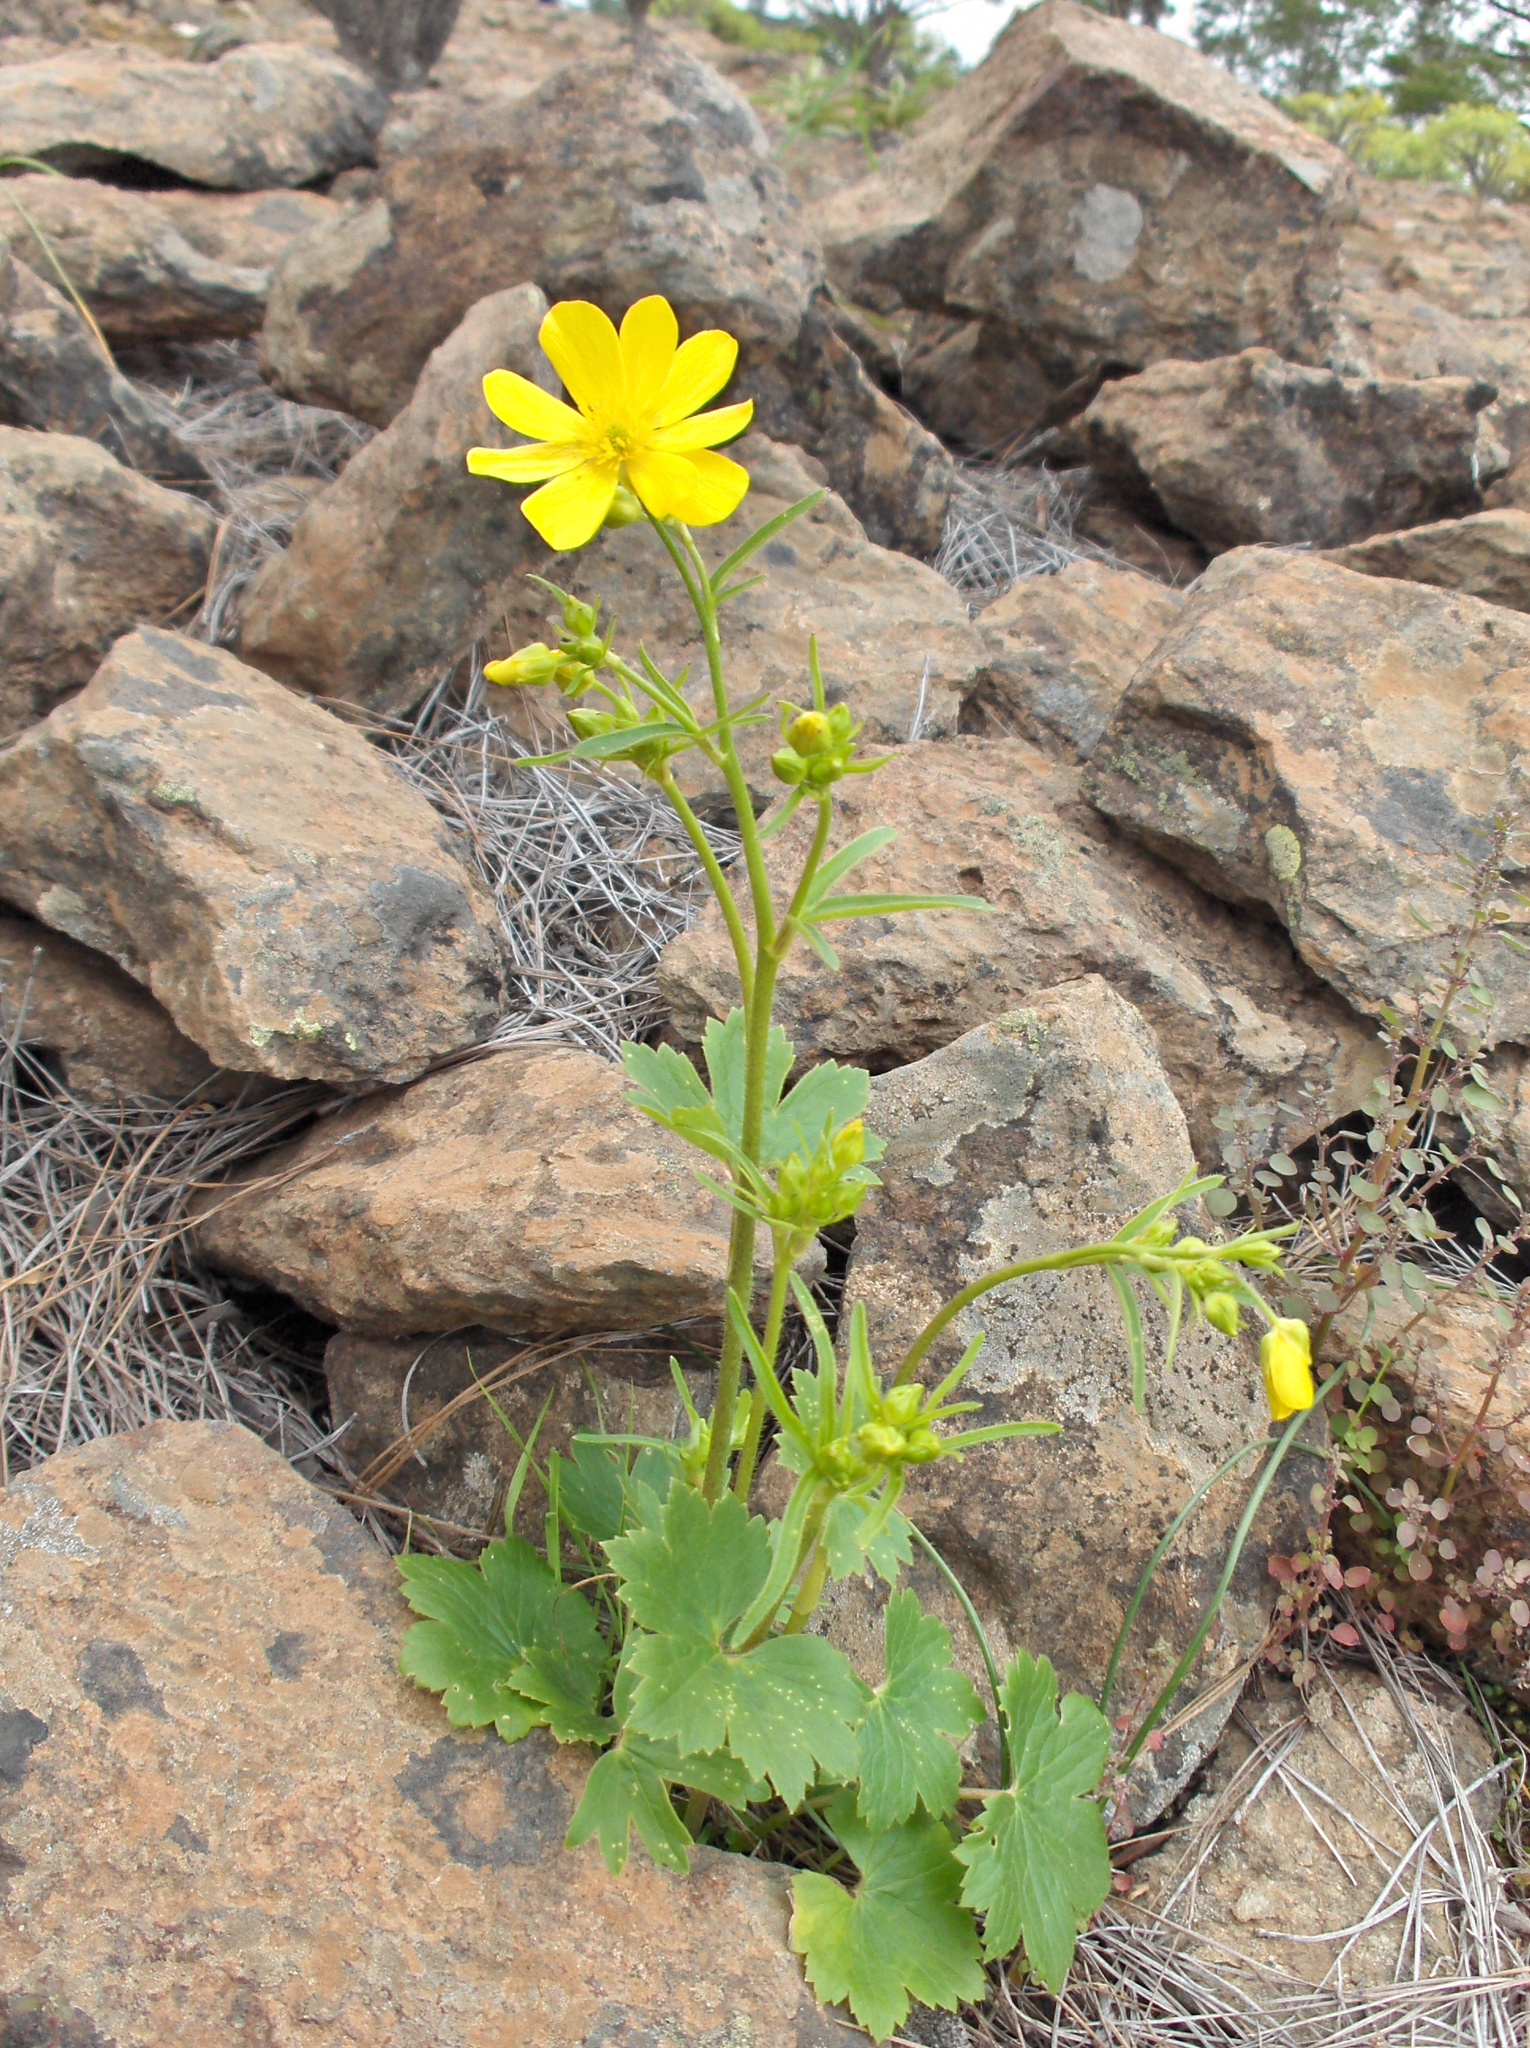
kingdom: Plantae
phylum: Tracheophyta
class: Magnoliopsida
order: Ranunculales
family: Ranunculaceae
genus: Ranunculus
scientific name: Ranunculus cortusifolius
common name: Azores buttercup
